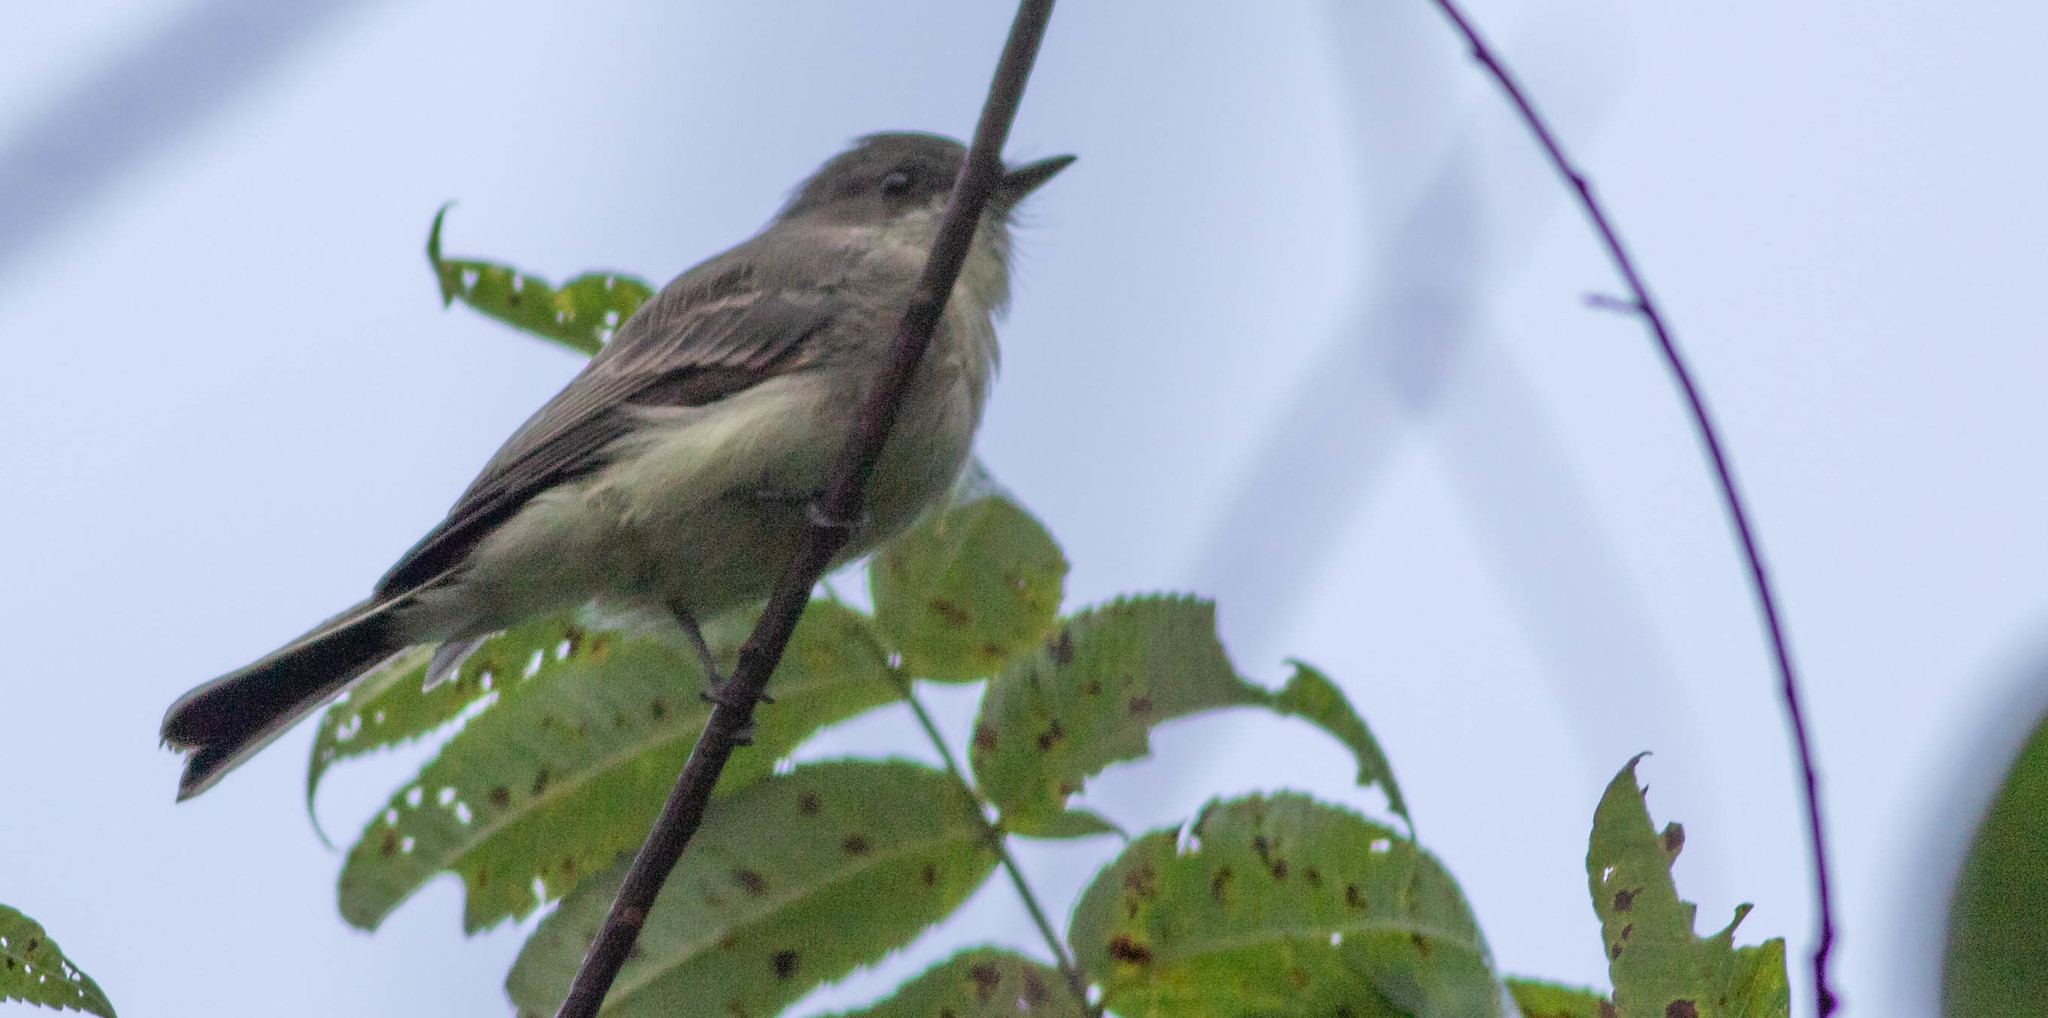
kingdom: Animalia
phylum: Chordata
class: Aves
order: Passeriformes
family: Tyrannidae
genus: Sayornis
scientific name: Sayornis phoebe
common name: Eastern phoebe
